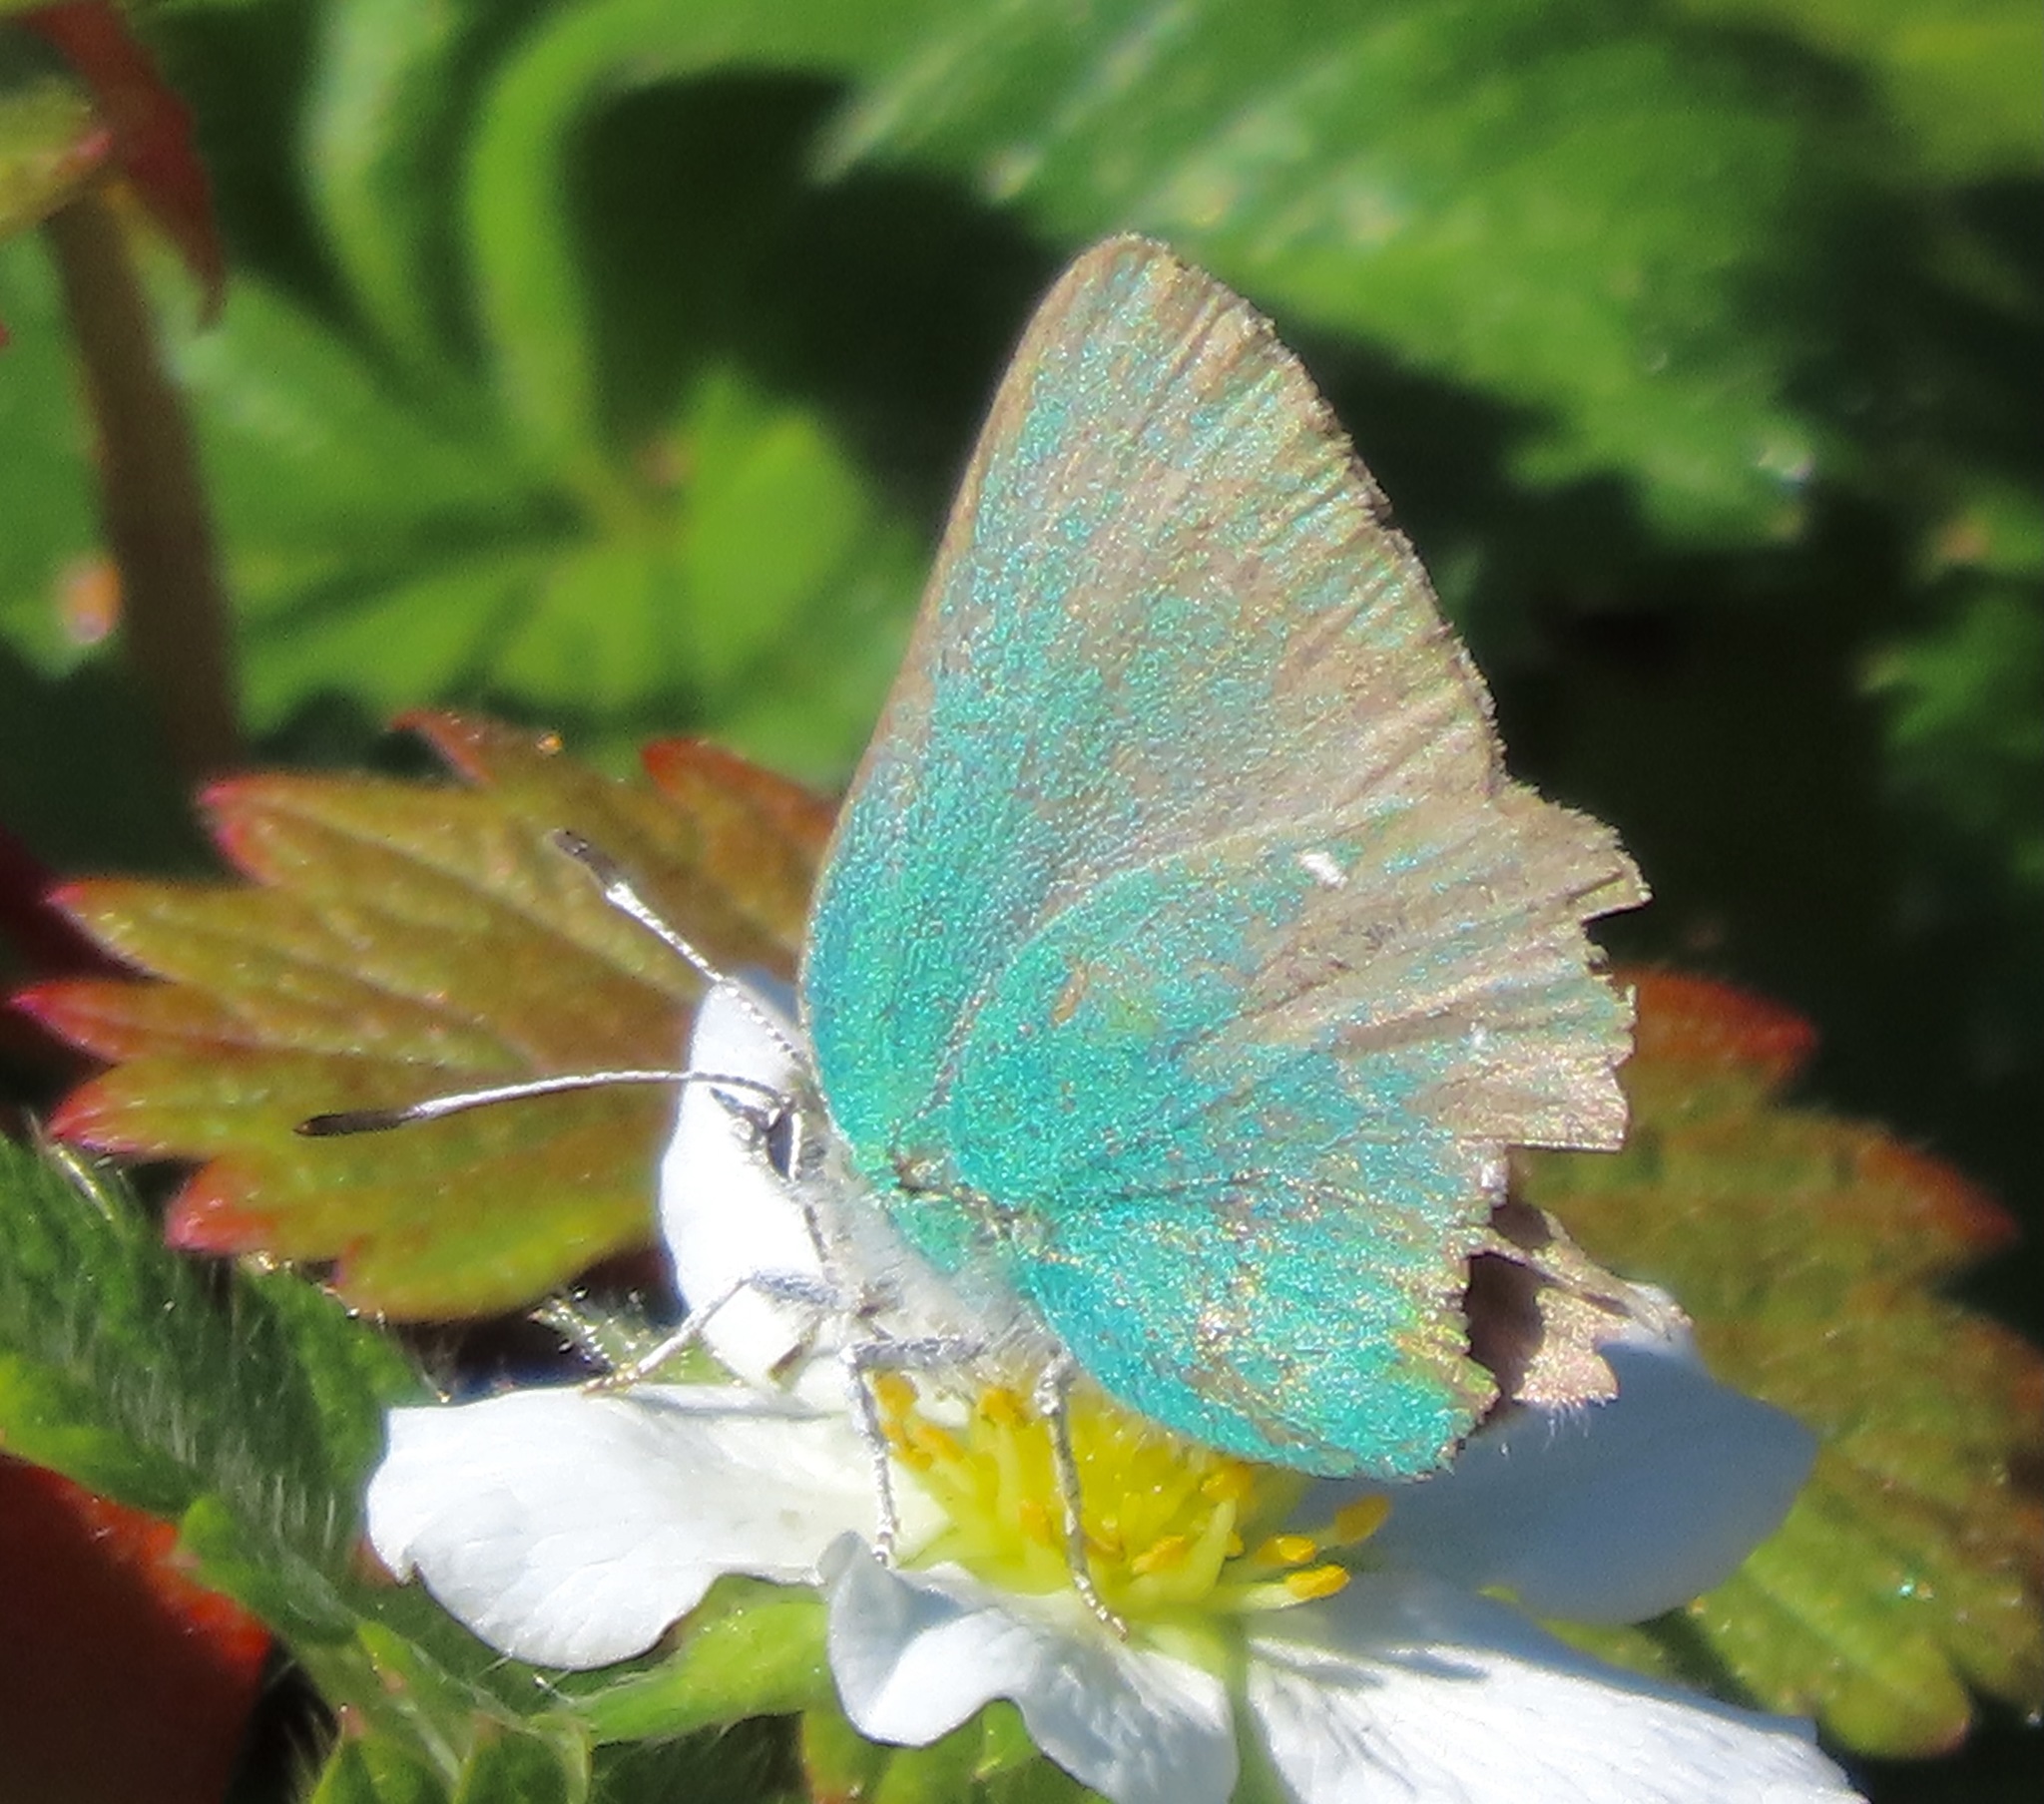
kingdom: Animalia
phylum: Arthropoda
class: Insecta
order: Lepidoptera
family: Lycaenidae
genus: Callophrys
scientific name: Callophrys viridis
